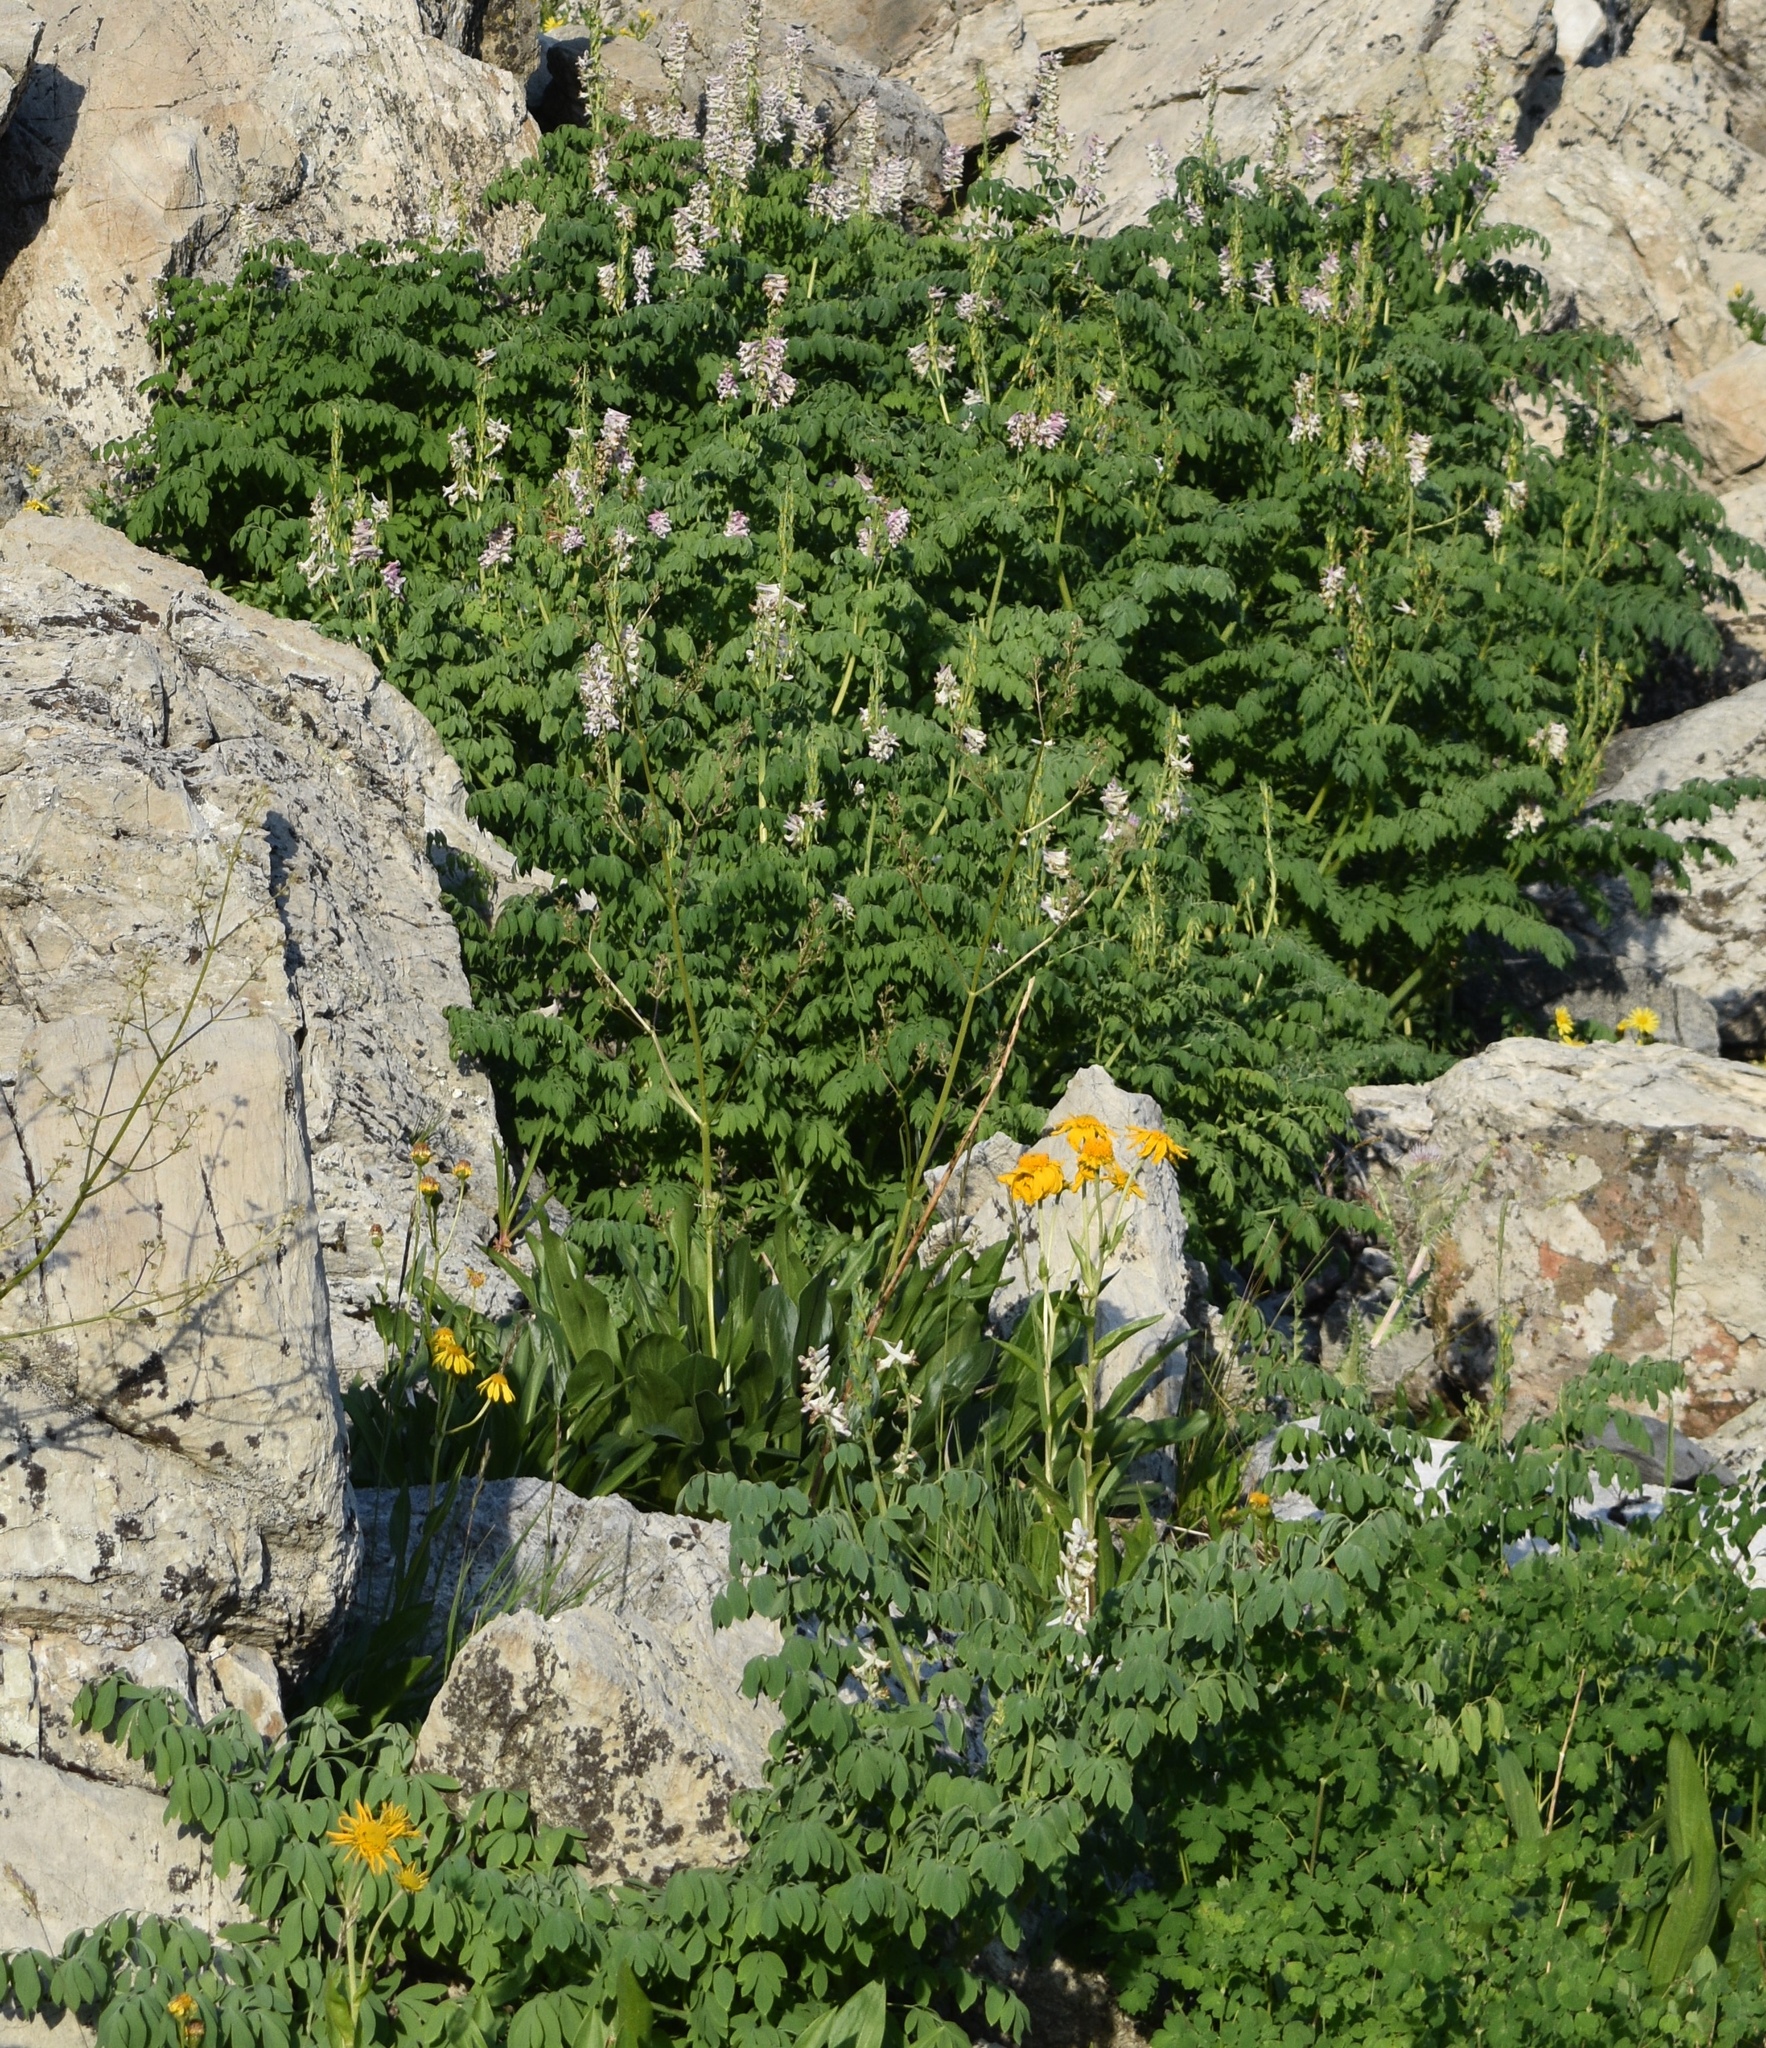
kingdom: Plantae
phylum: Tracheophyta
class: Magnoliopsida
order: Ranunculales
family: Papaveraceae
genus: Corydalis
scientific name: Corydalis caseana
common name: Fitweed
